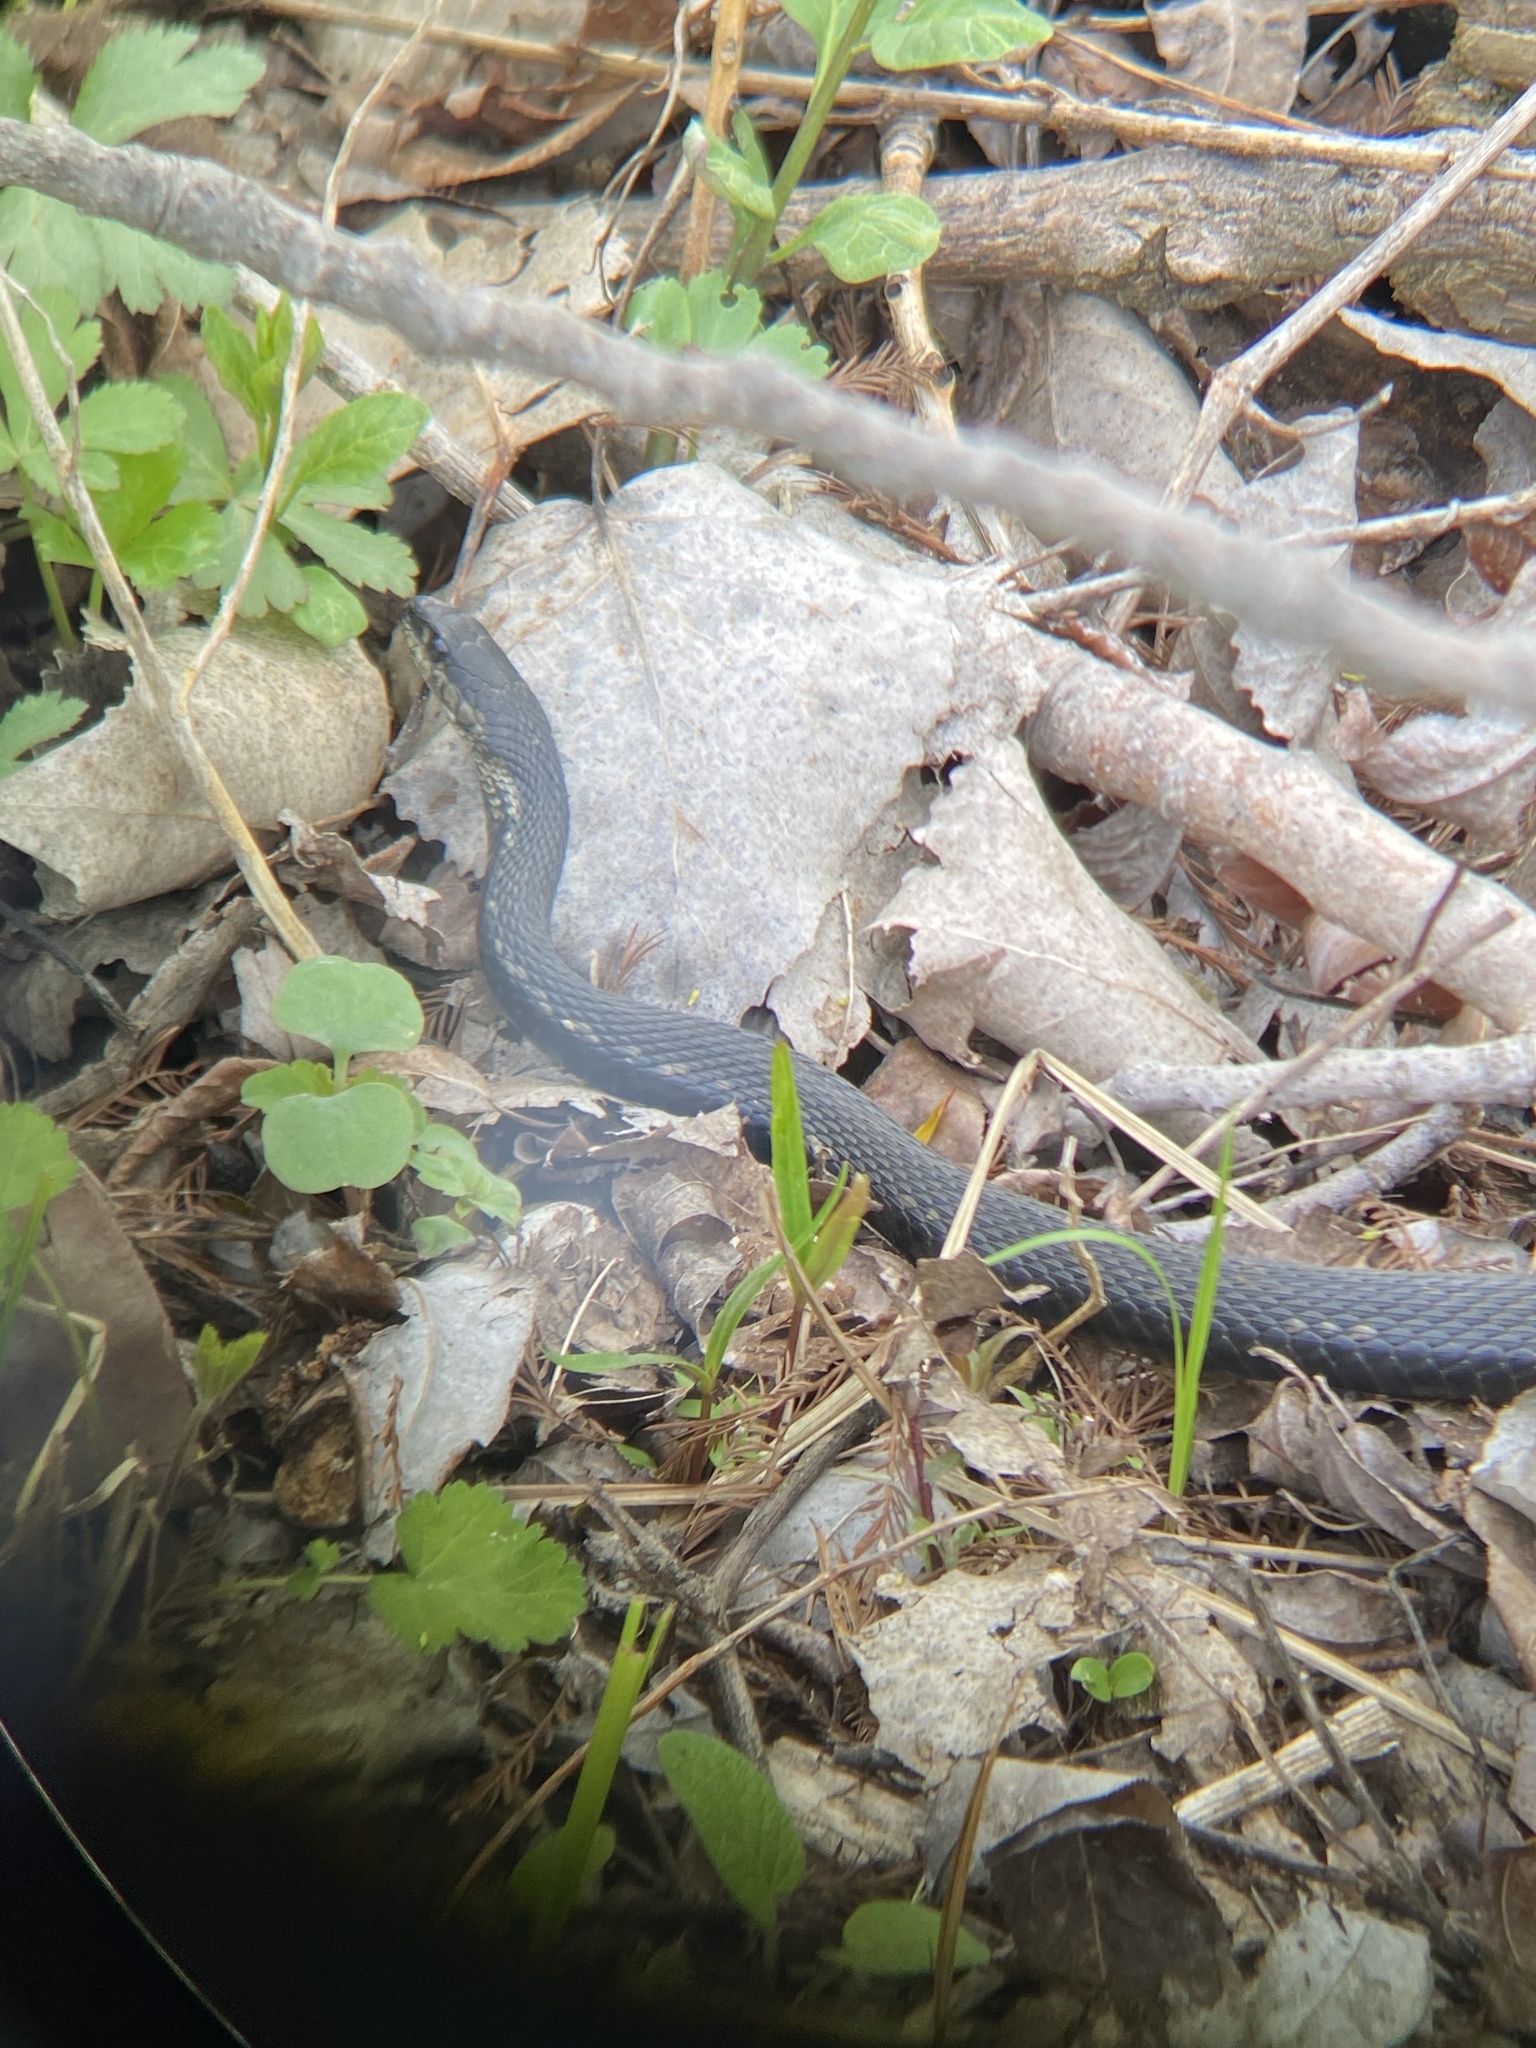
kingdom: Animalia
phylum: Chordata
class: Squamata
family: Colubridae
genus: Thamnophis
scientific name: Thamnophis sirtalis
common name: Common garter snake
